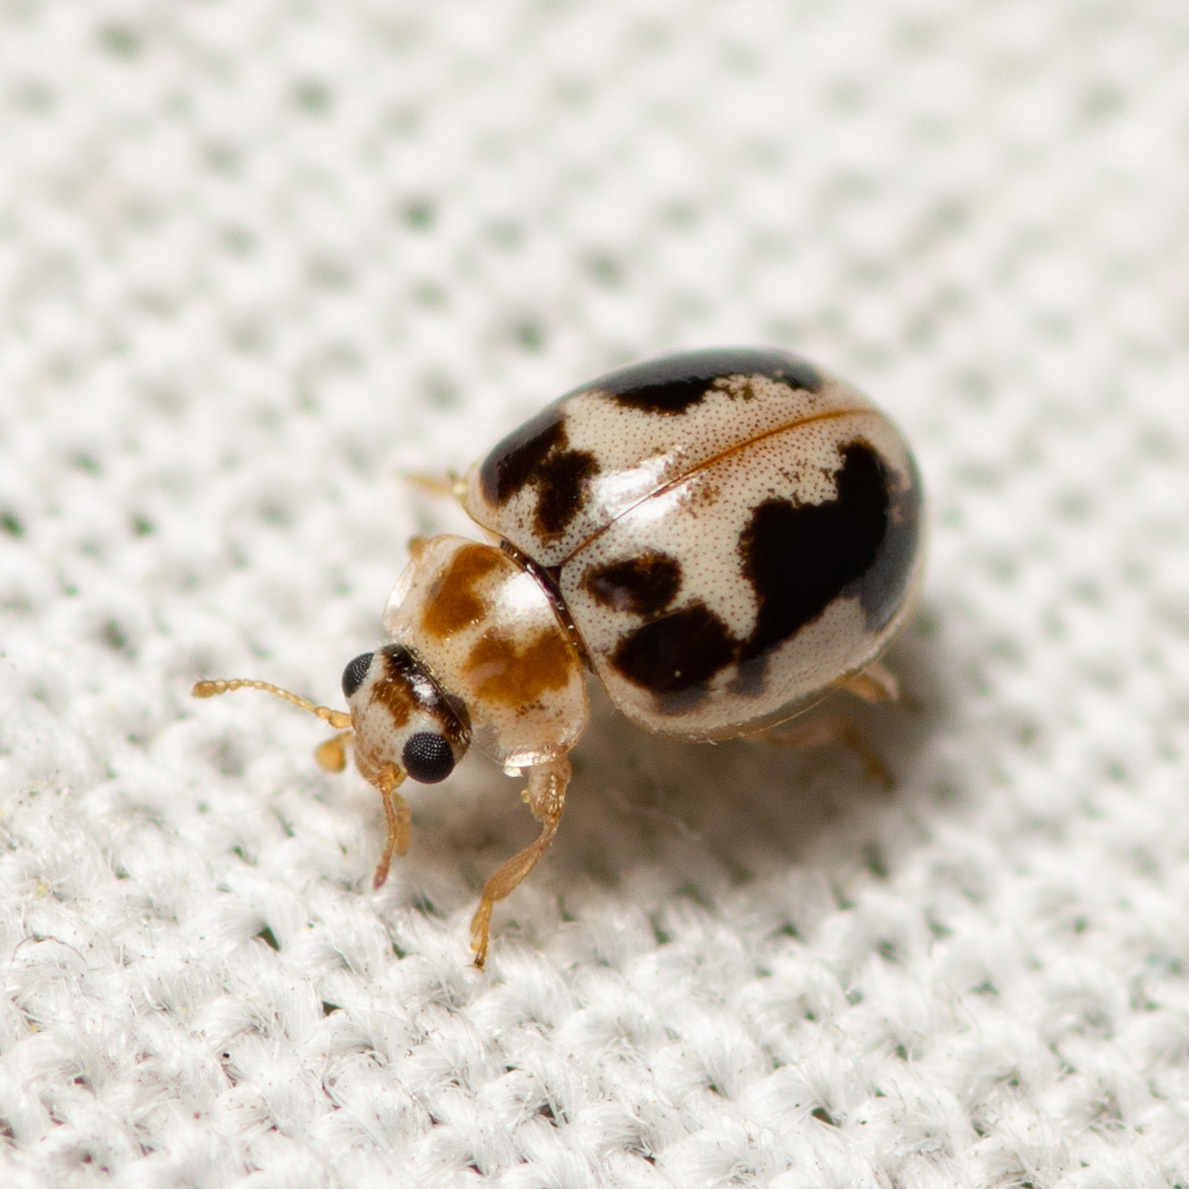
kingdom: Animalia
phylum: Arthropoda
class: Insecta
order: Coleoptera
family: Coccinellidae
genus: Psyllobora
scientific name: Psyllobora renifer
